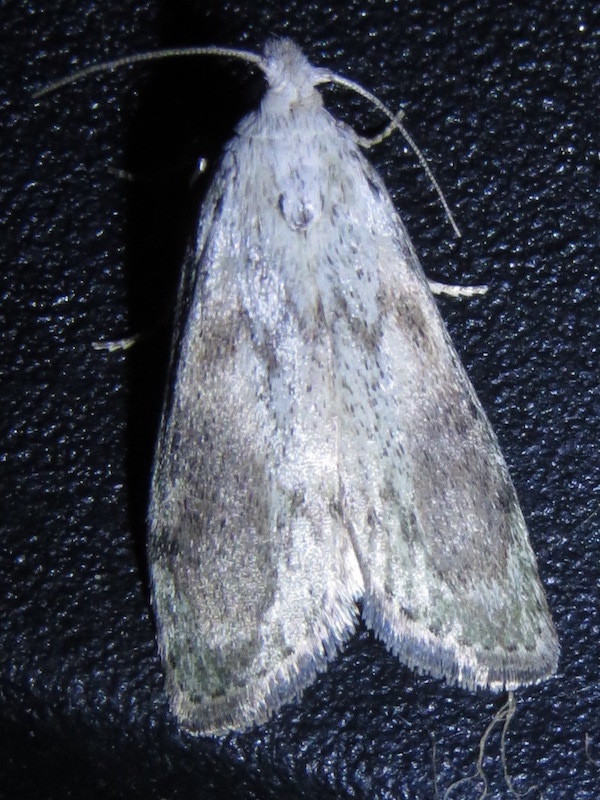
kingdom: Animalia
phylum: Arthropoda
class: Insecta
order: Lepidoptera
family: Pyralidae
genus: Aphomia
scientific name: Aphomia sociella
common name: Bee moth
